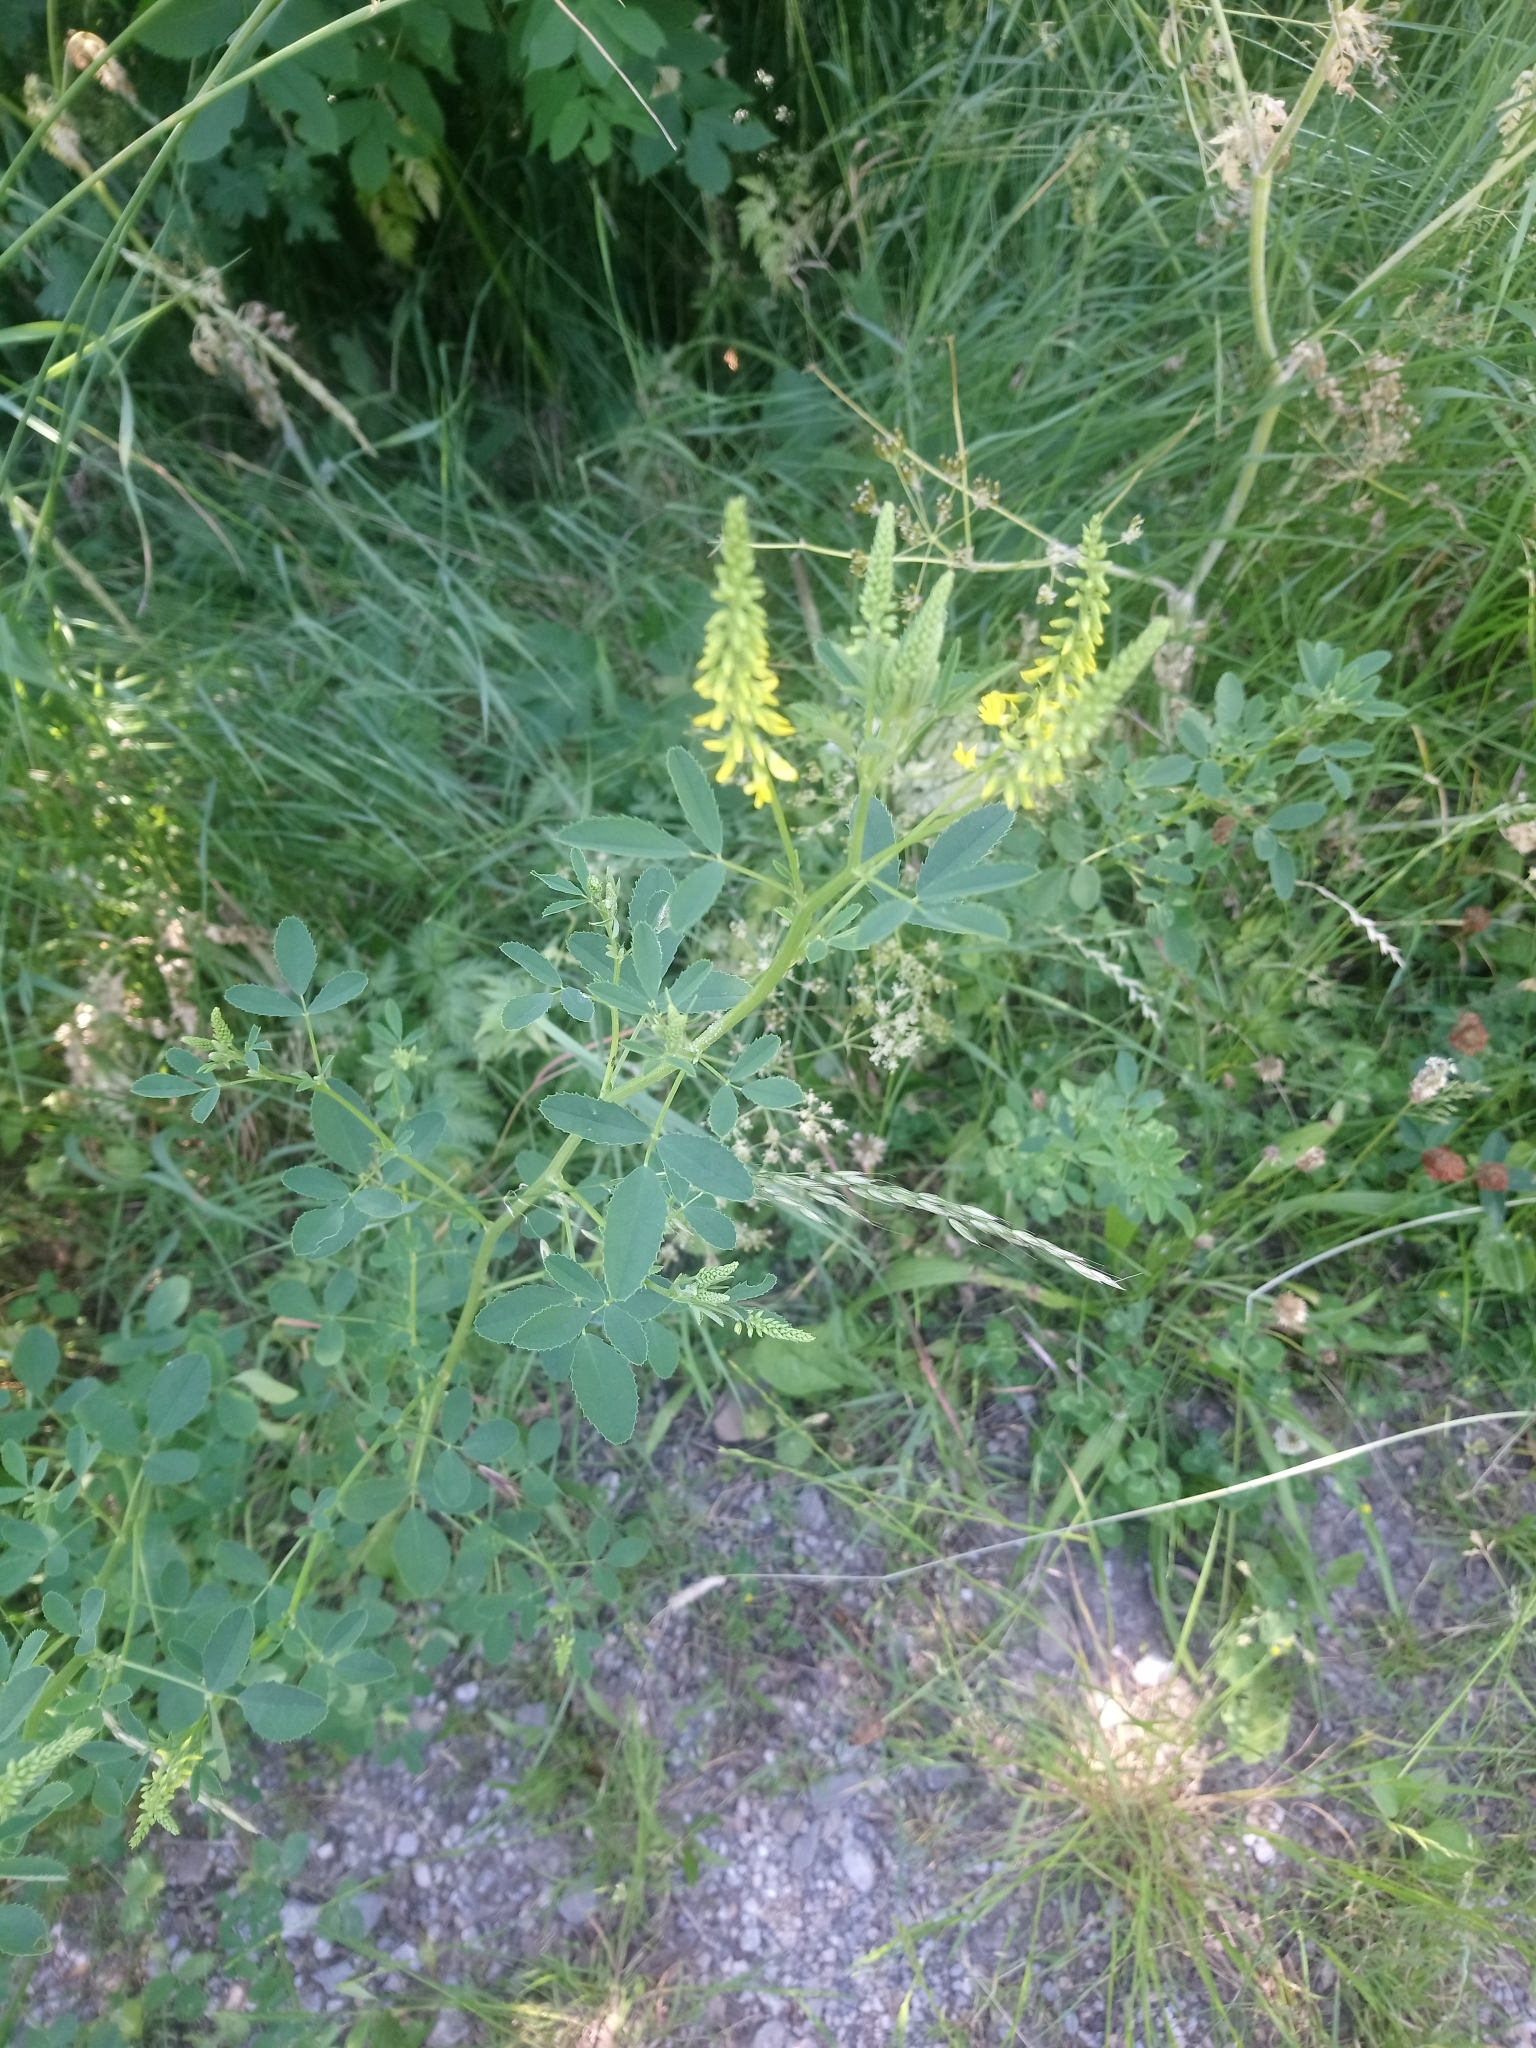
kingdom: Plantae
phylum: Tracheophyta
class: Magnoliopsida
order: Fabales
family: Fabaceae
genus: Melilotus
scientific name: Melilotus officinalis
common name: Sweetclover
